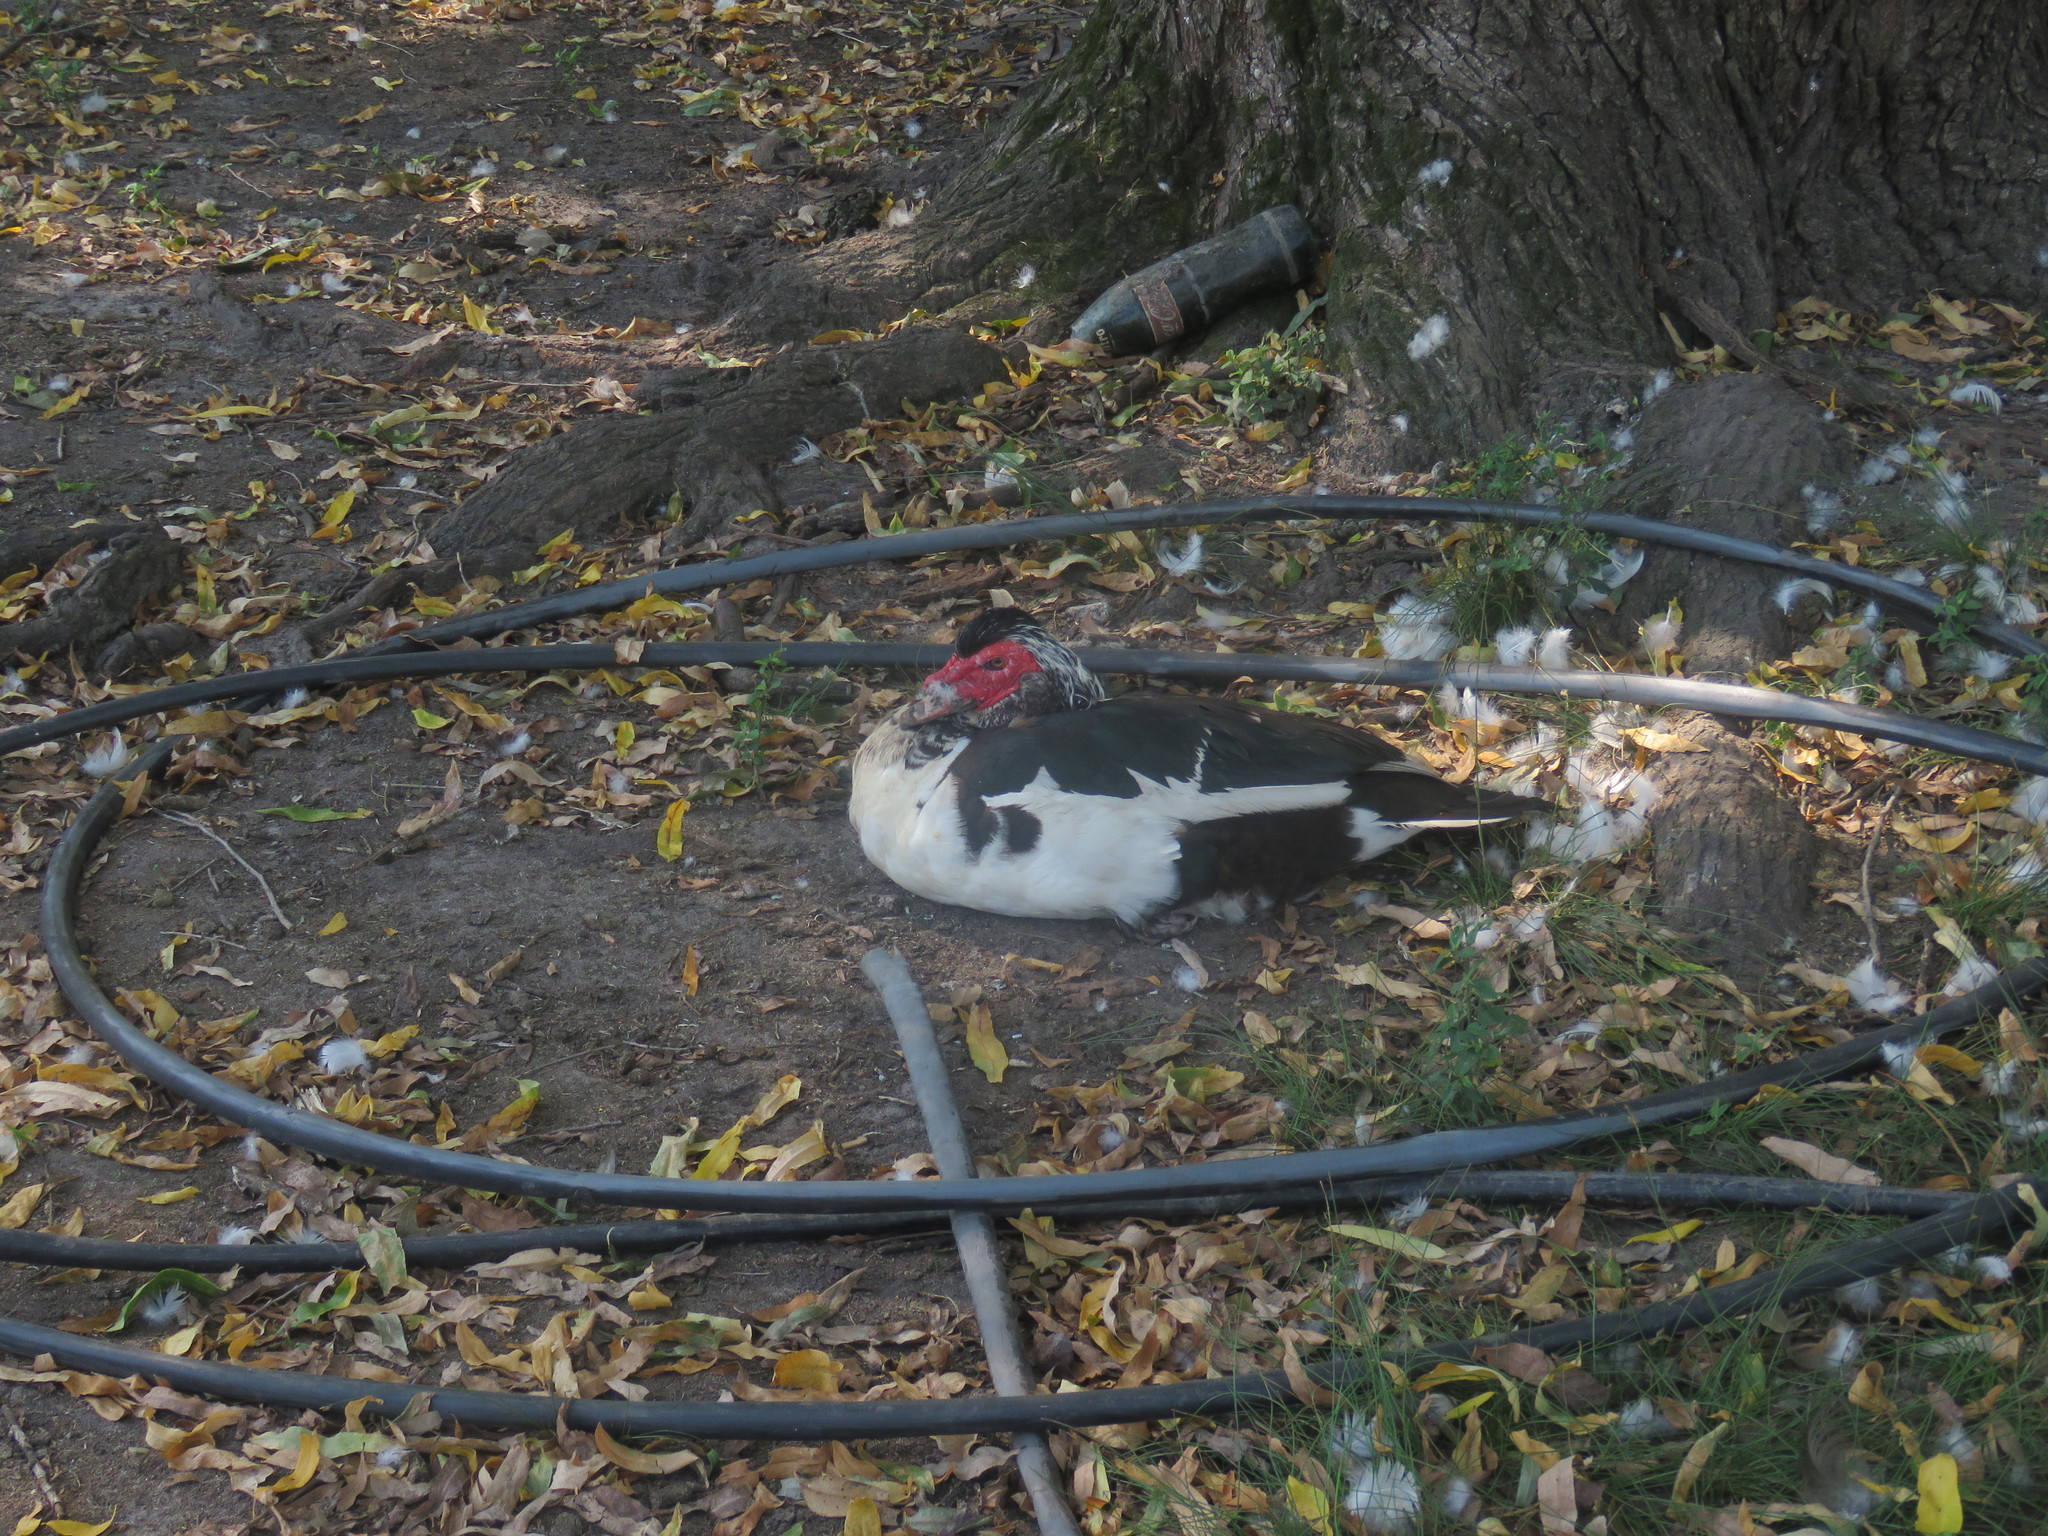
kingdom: Animalia
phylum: Chordata
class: Aves
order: Anseriformes
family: Anatidae
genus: Cairina
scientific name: Cairina moschata
